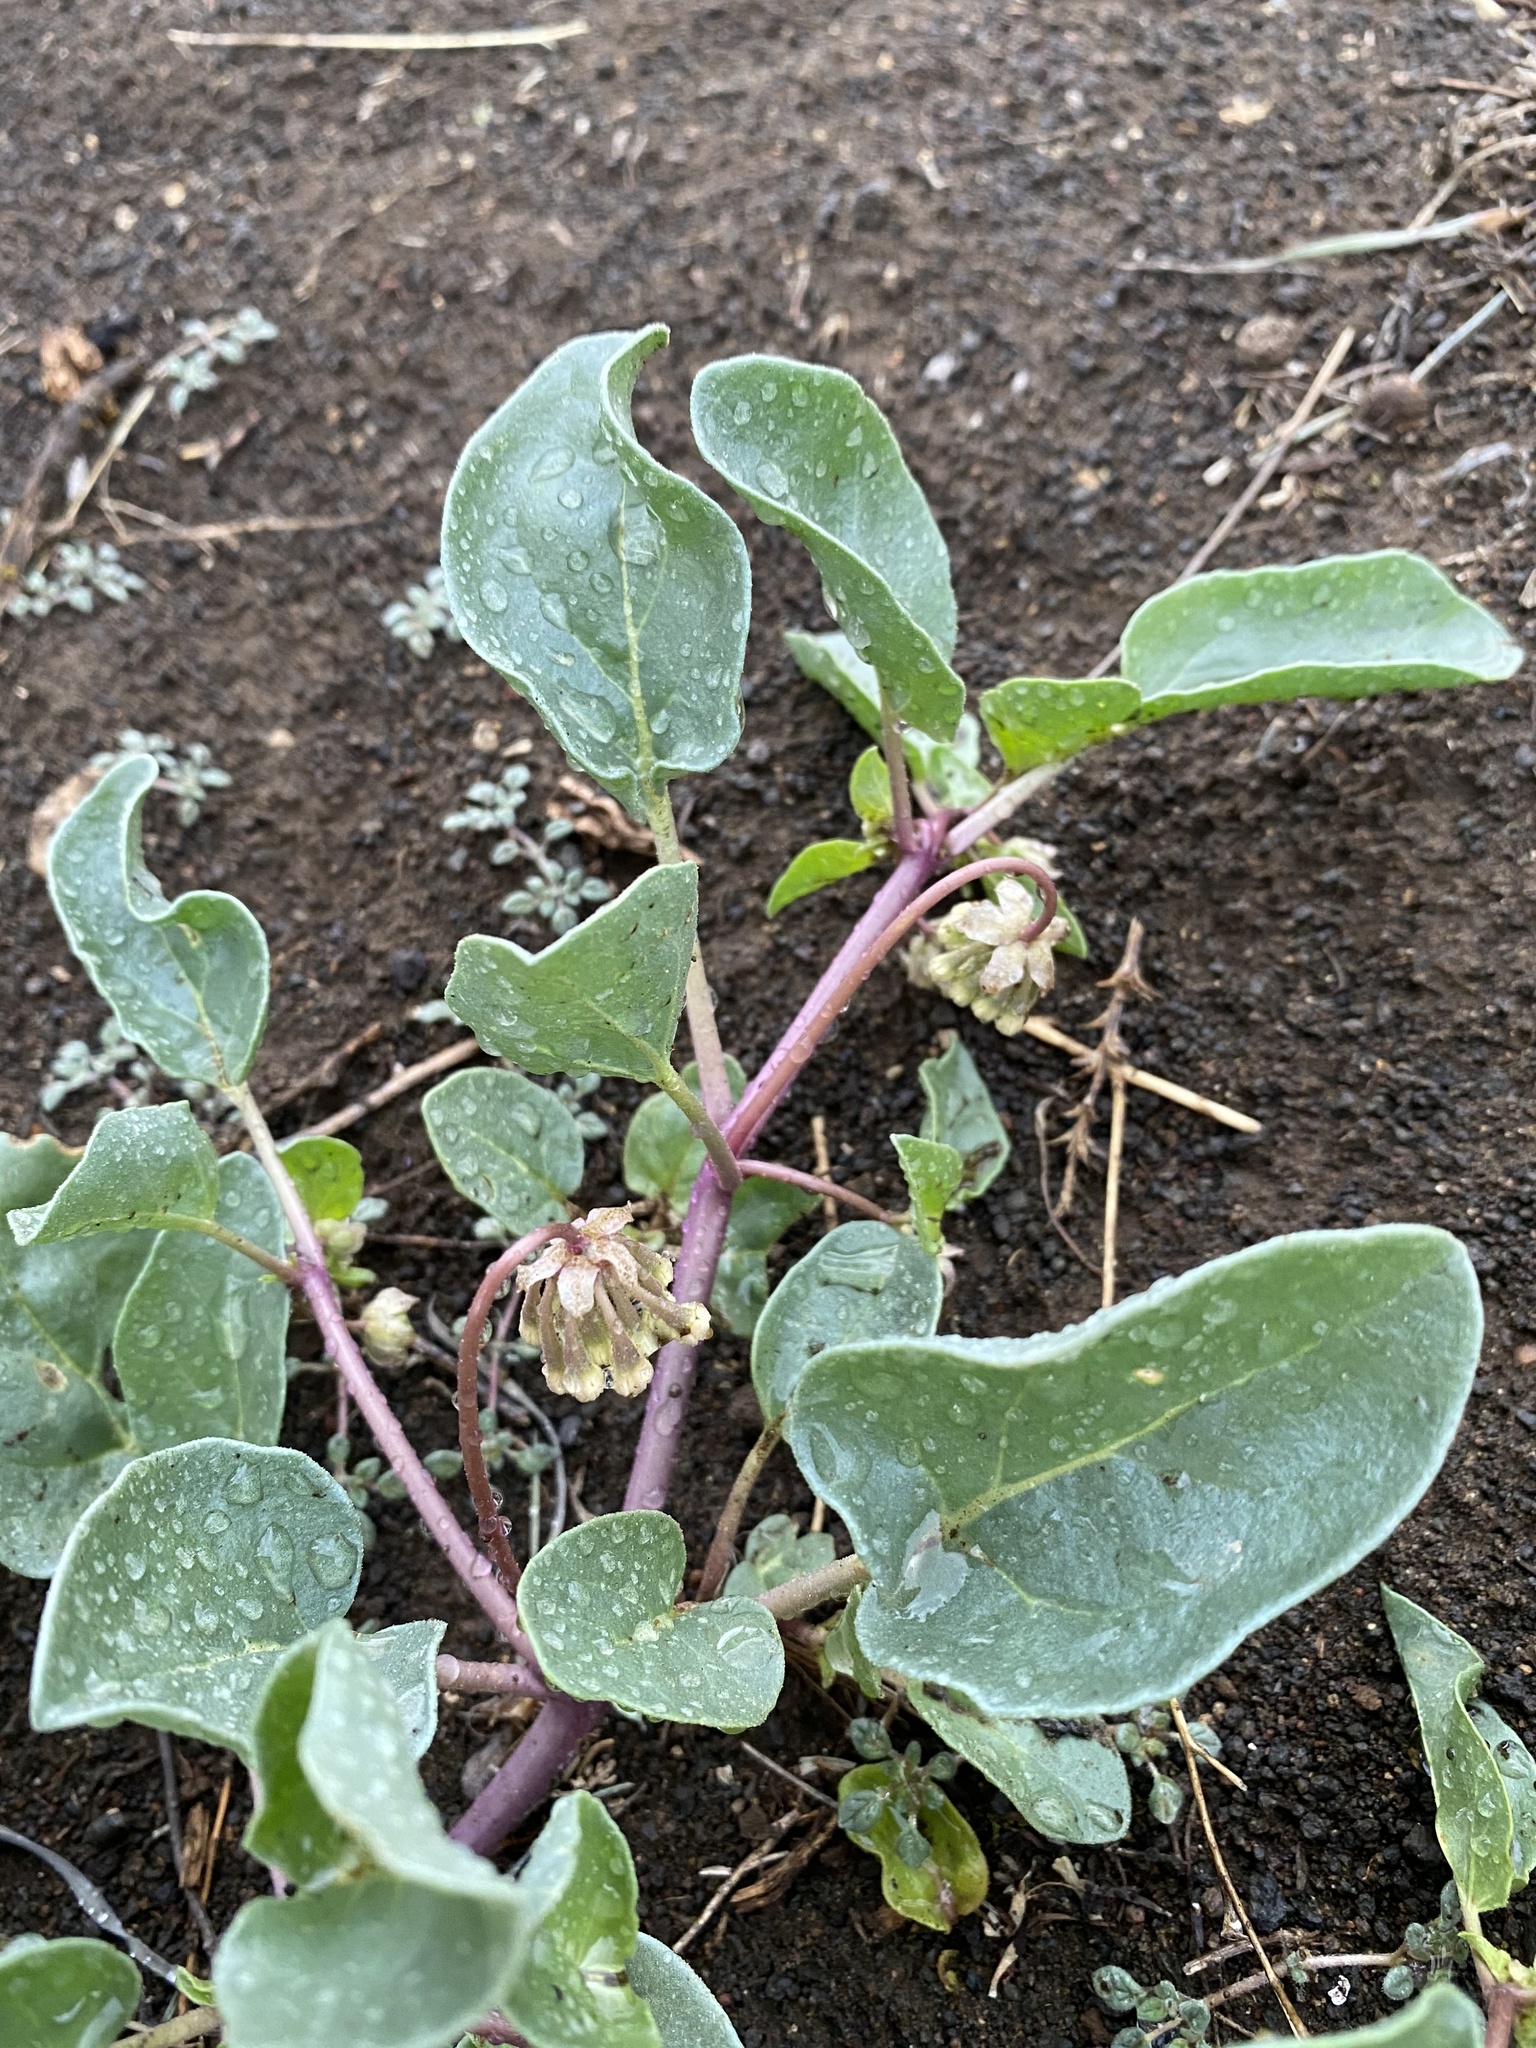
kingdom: Plantae
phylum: Tracheophyta
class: Magnoliopsida
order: Caryophyllales
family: Nyctaginaceae
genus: Abronia
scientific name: Abronia mellifera
